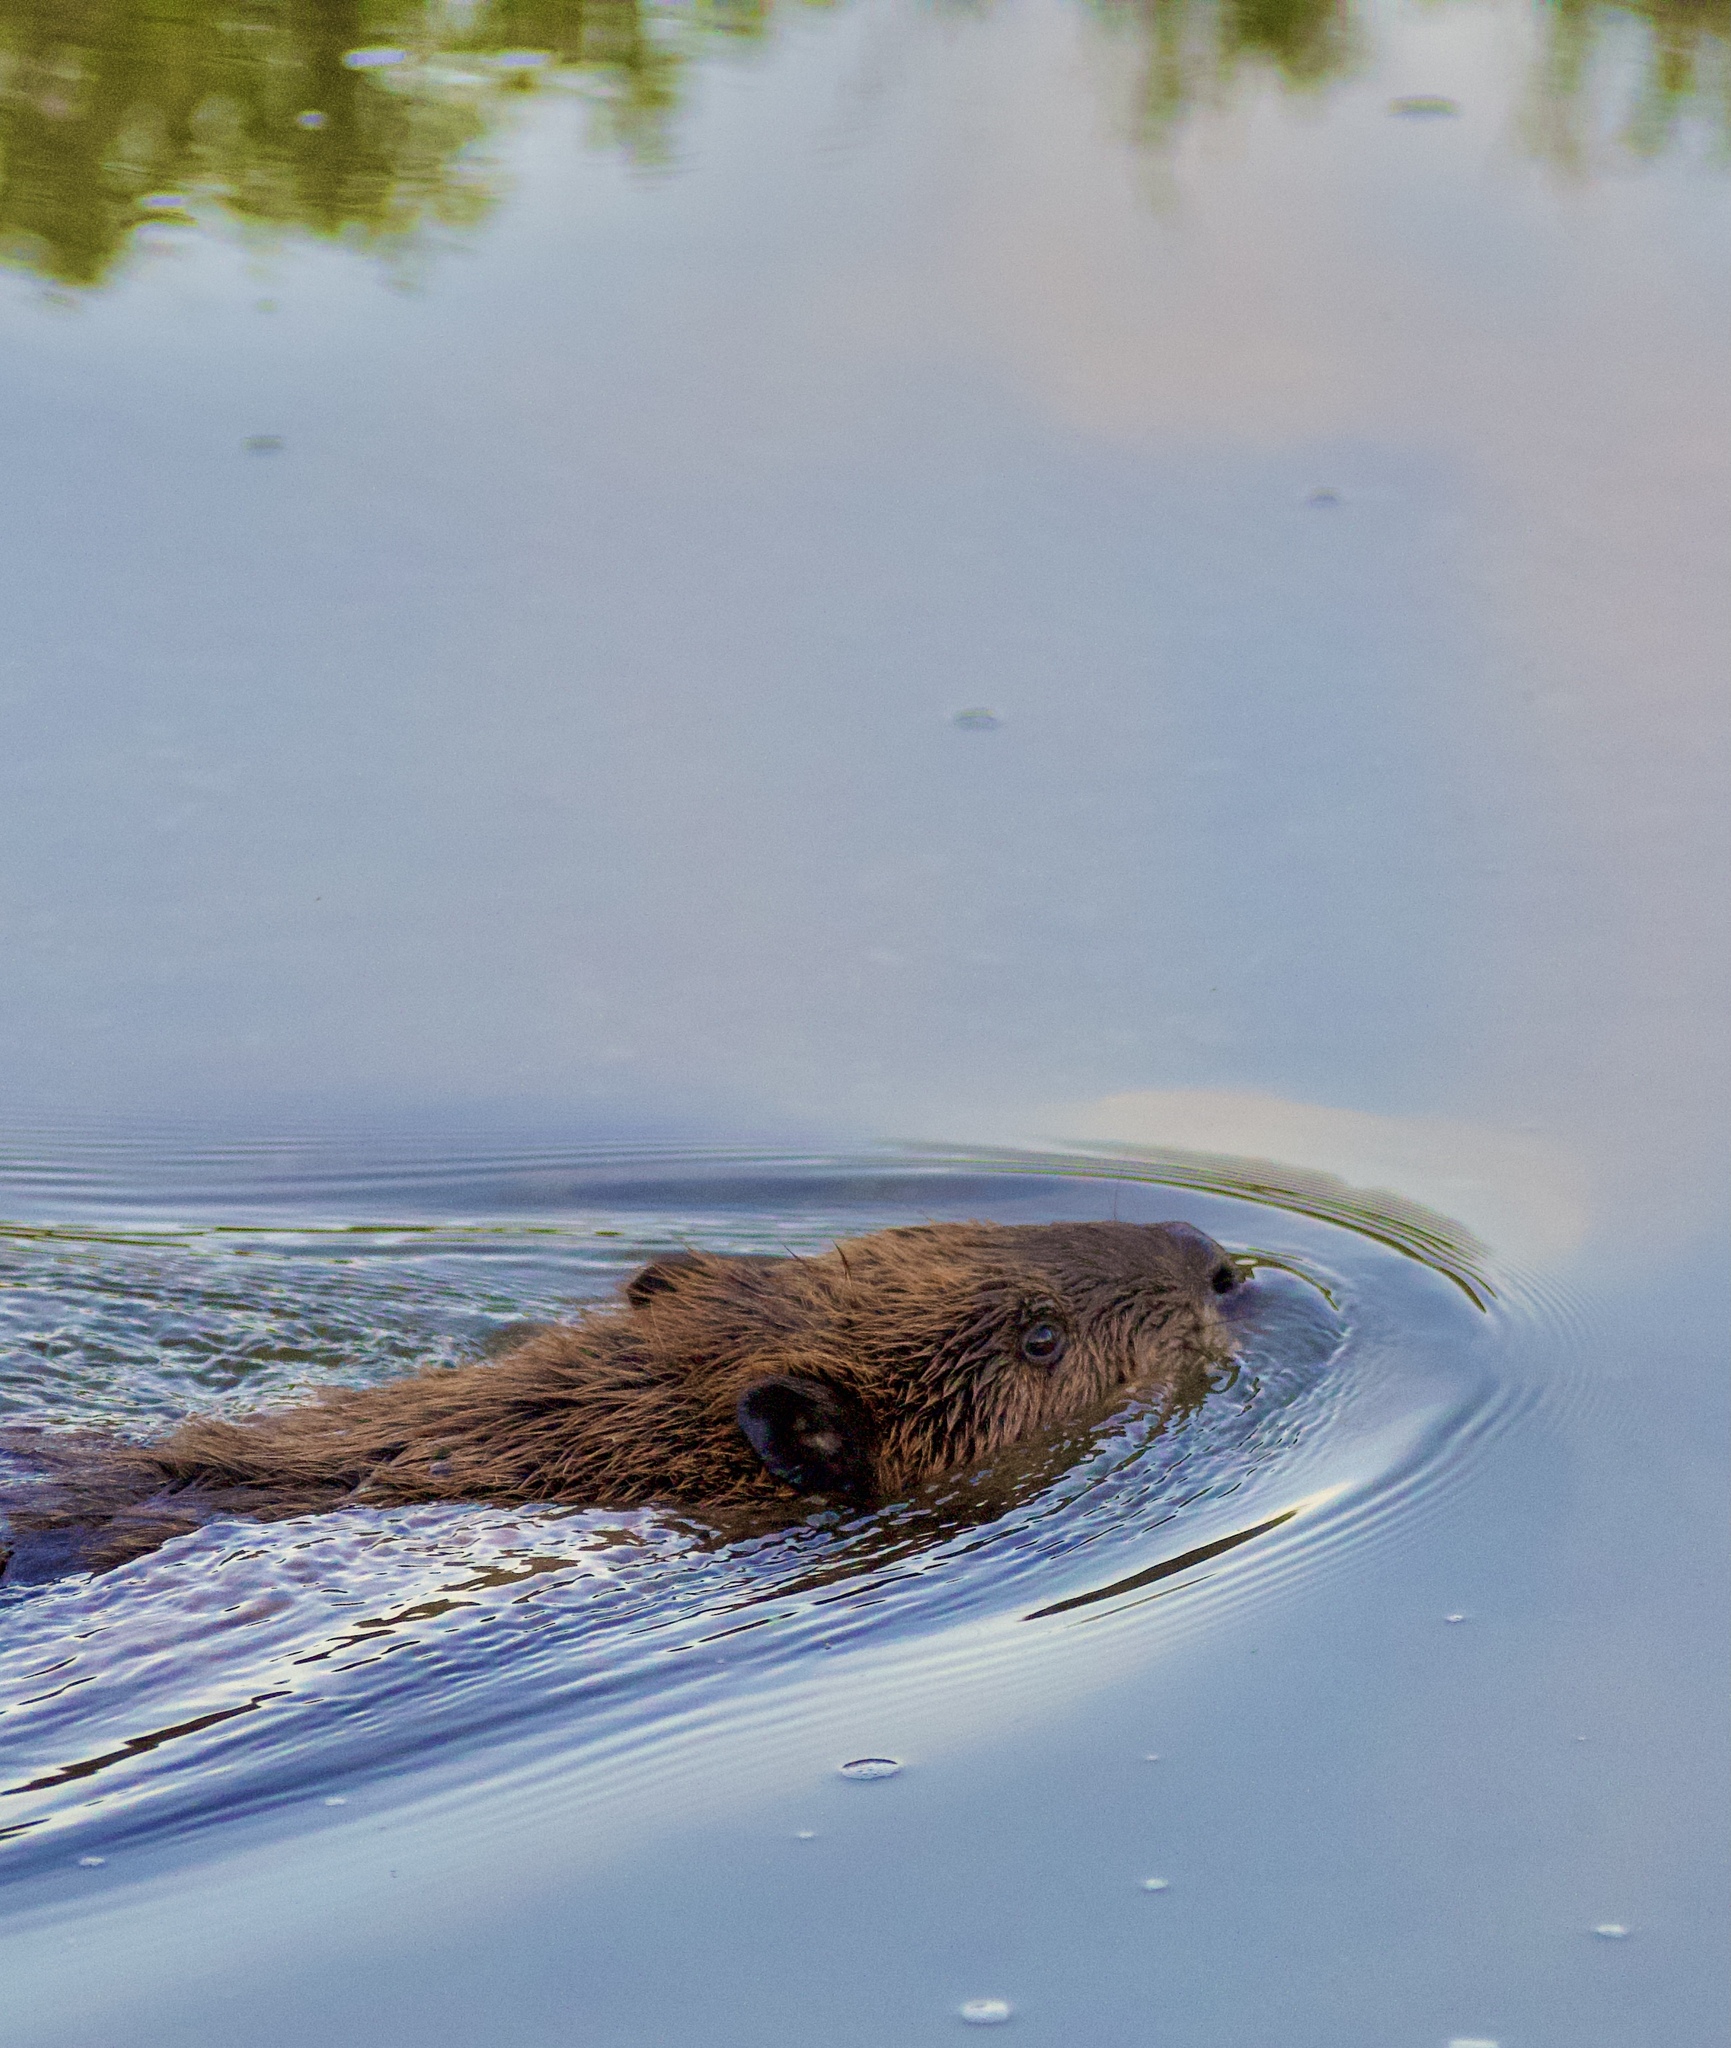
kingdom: Animalia
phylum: Chordata
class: Mammalia
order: Rodentia
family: Castoridae
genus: Castor
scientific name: Castor canadensis
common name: American beaver
